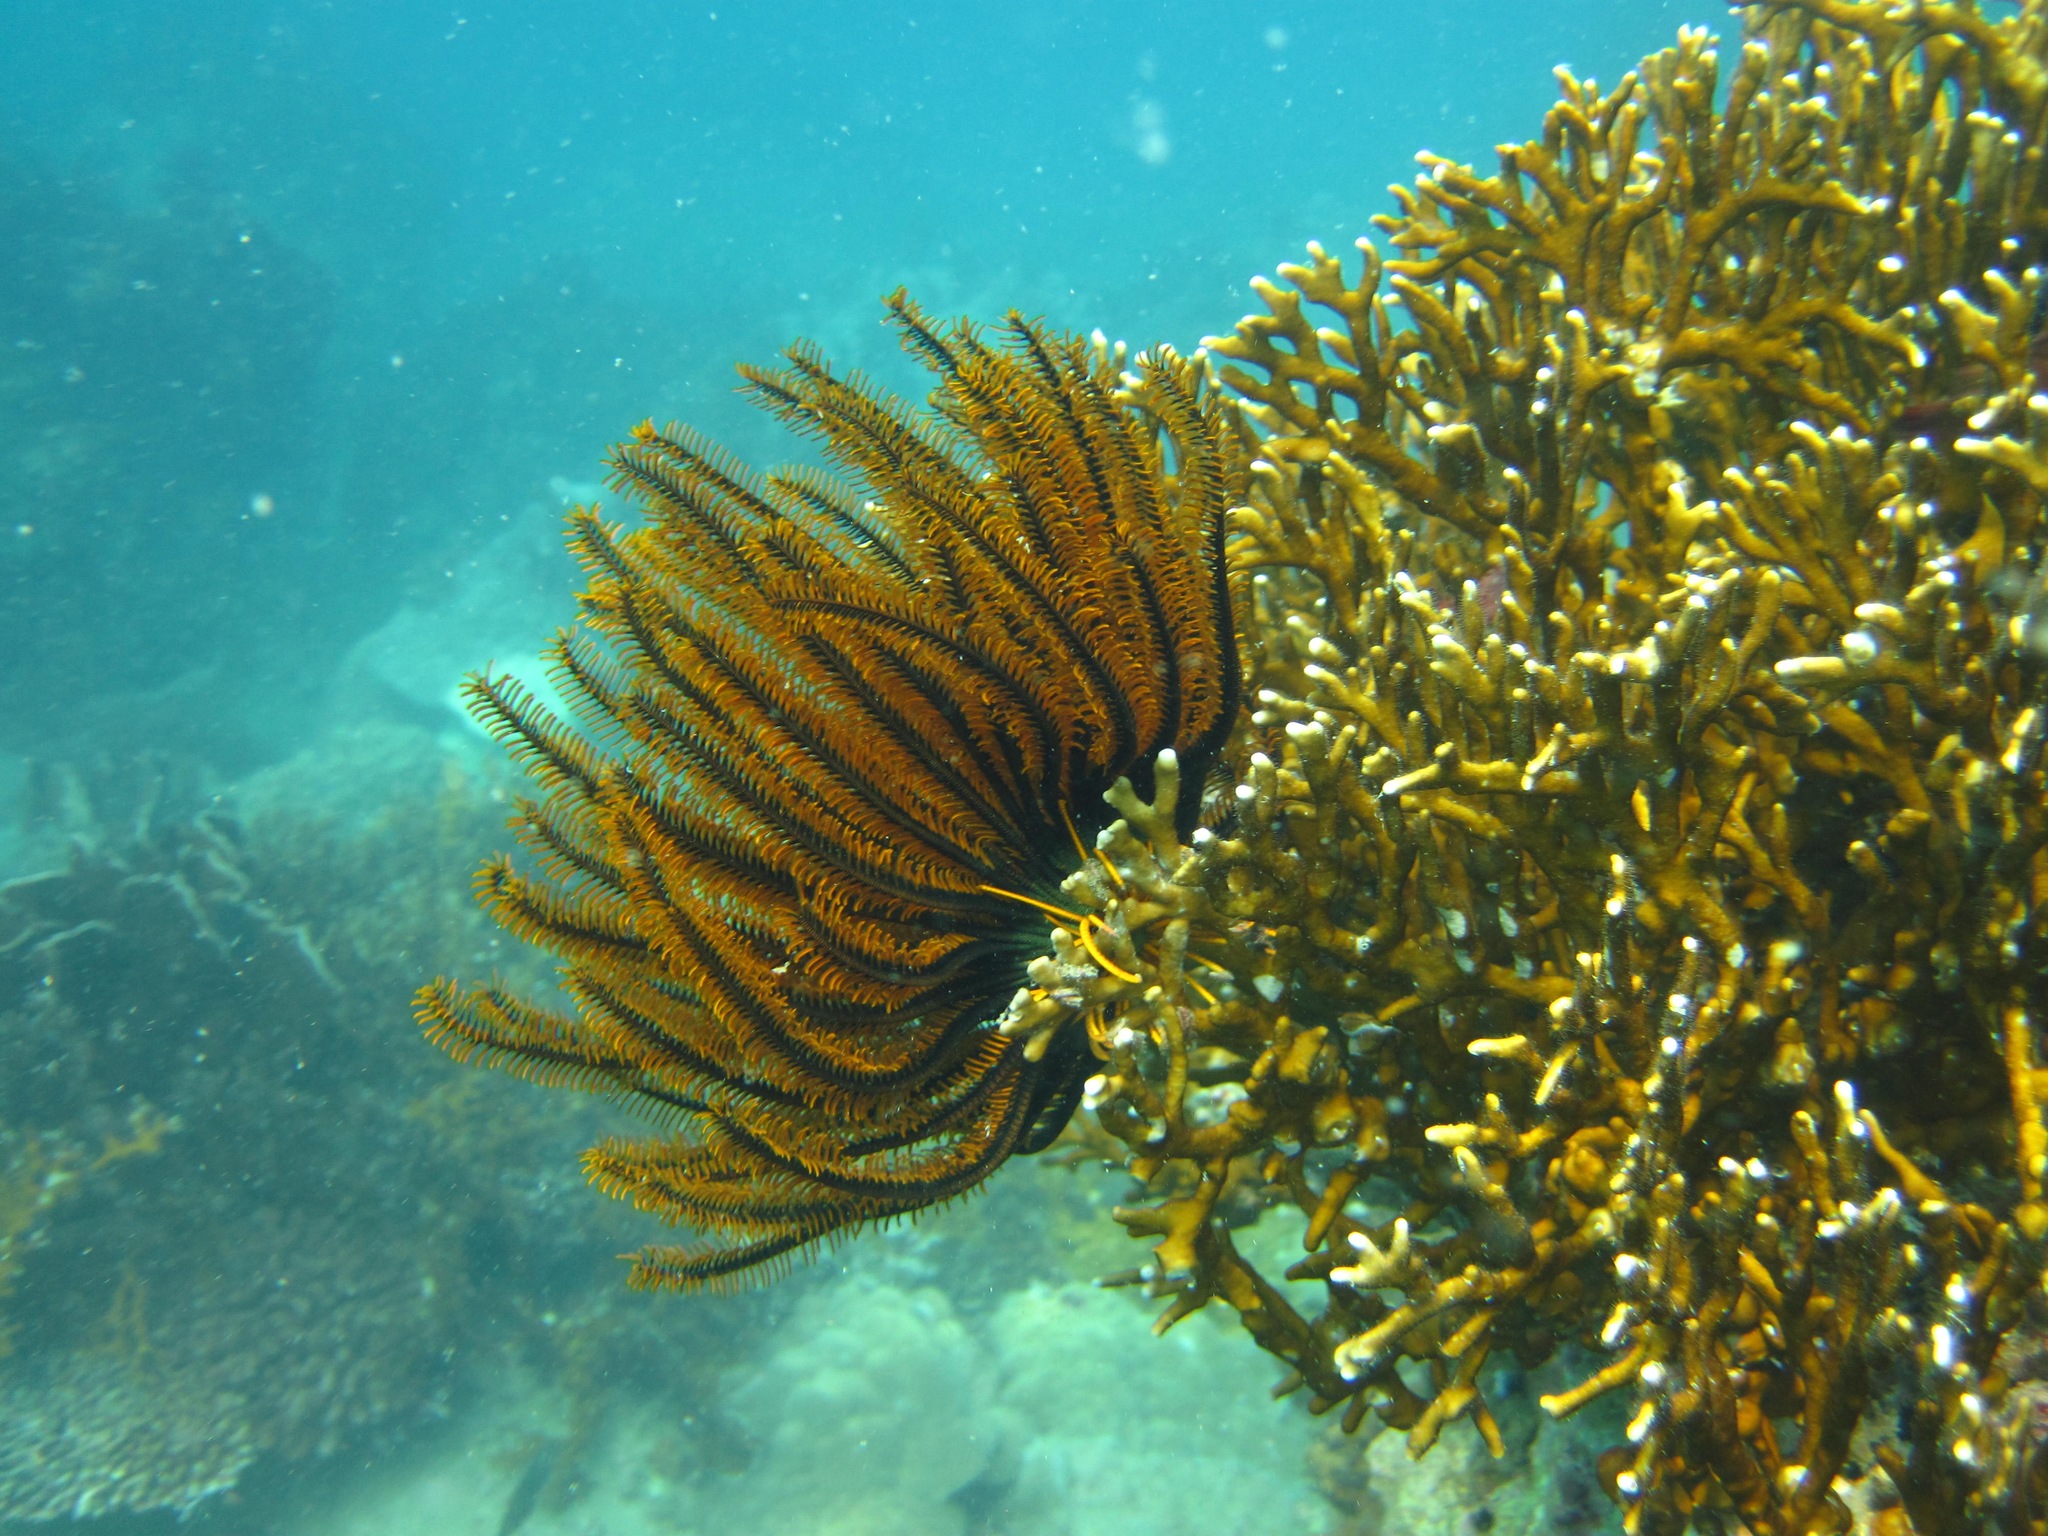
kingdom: Animalia
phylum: Echinodermata
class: Crinoidea
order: Comatulida
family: Comatulidae
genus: Anneissia
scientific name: Anneissia bennetti
